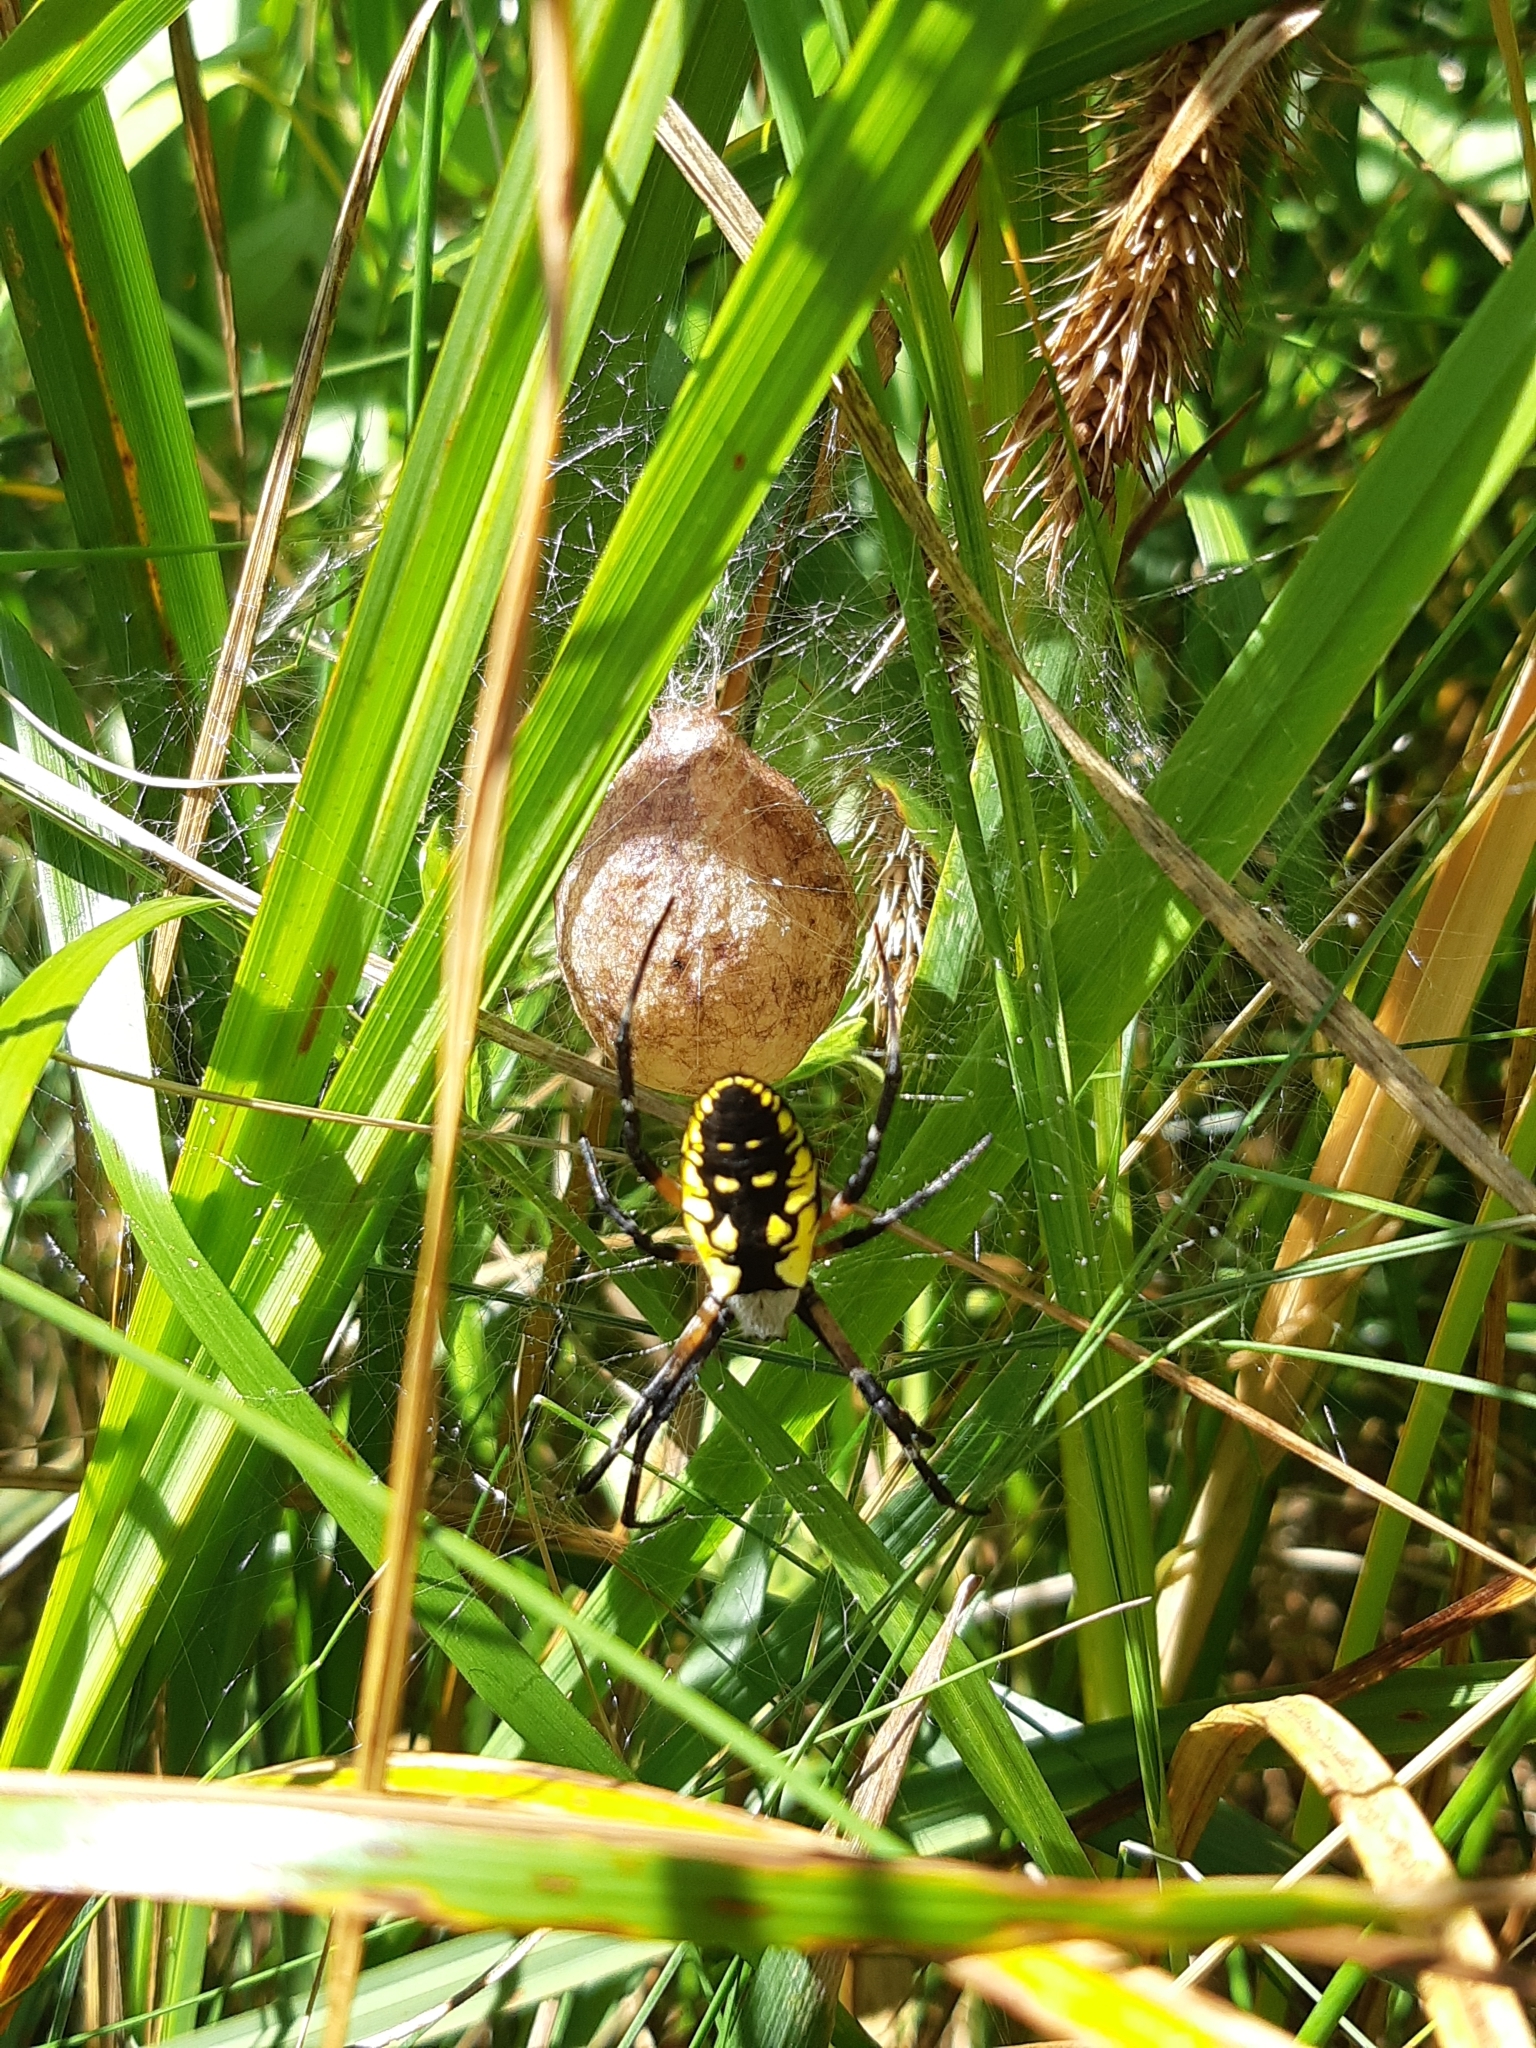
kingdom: Animalia
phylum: Arthropoda
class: Arachnida
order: Araneae
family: Araneidae
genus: Argiope
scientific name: Argiope aurantia
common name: Orb weavers
